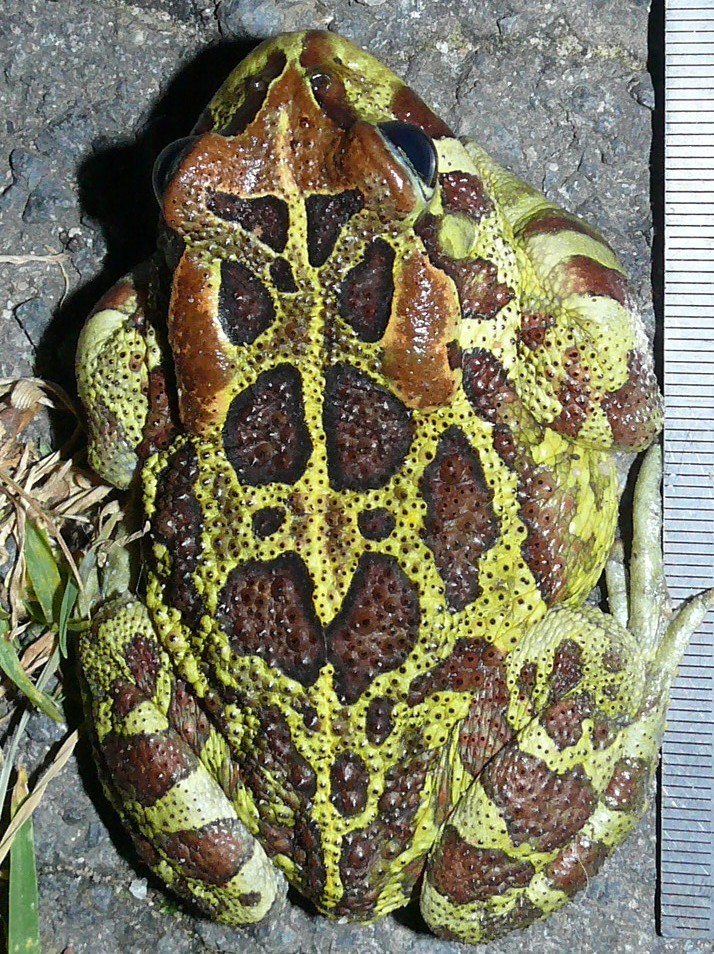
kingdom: Animalia
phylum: Chordata
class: Amphibia
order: Anura
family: Bufonidae
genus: Sclerophrys
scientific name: Sclerophrys pantherina
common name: Panther toad
